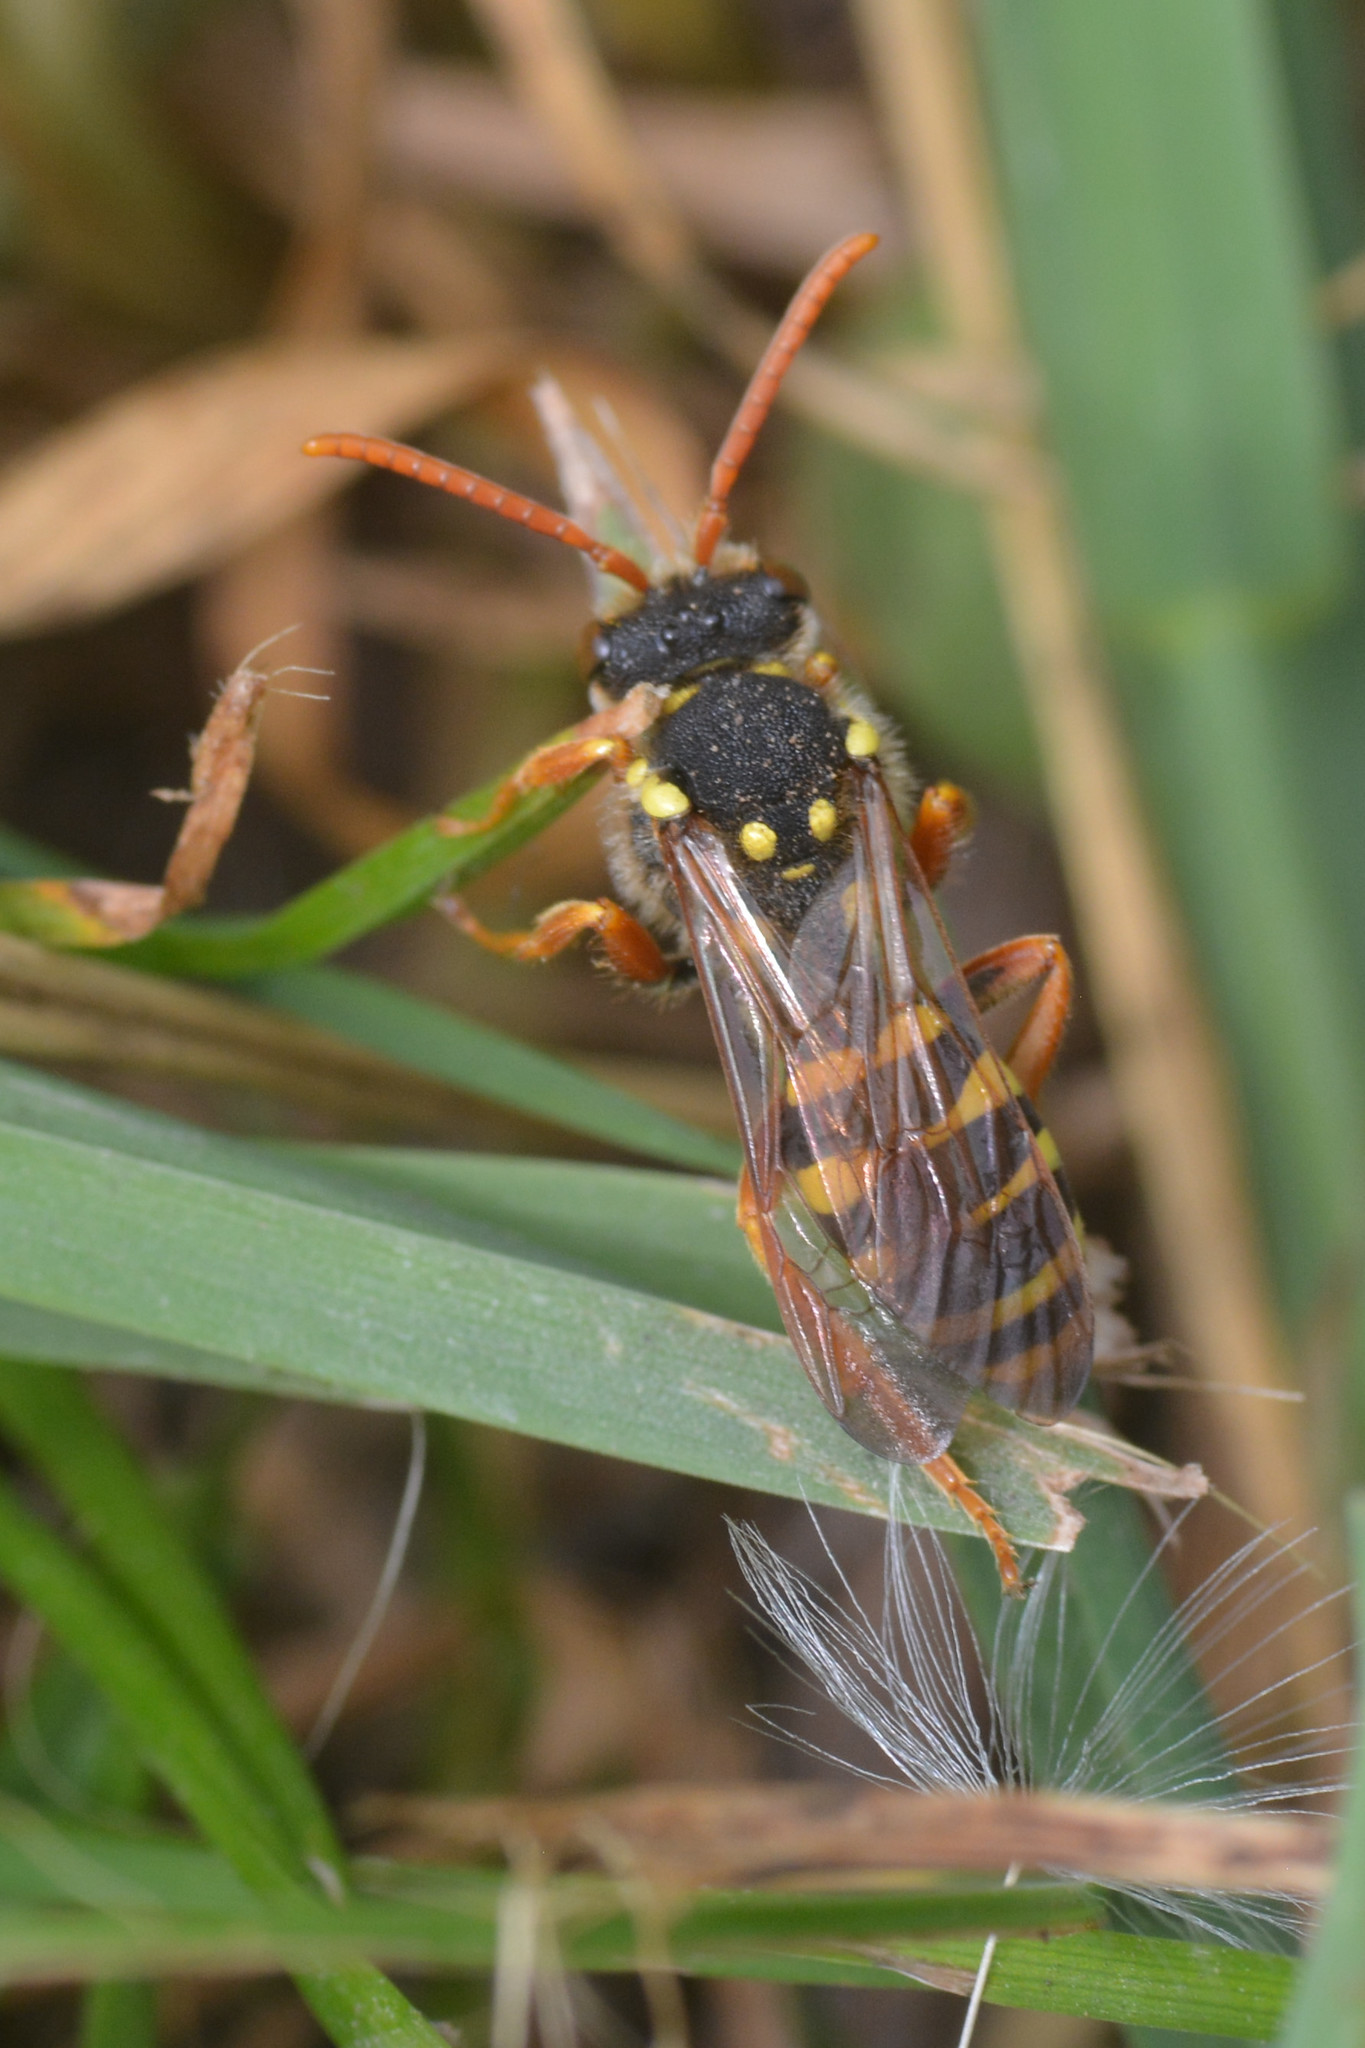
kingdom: Animalia
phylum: Arthropoda
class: Insecta
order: Hymenoptera
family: Apidae
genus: Nomada
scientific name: Nomada goodeniana
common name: Gooden's nomad bee
